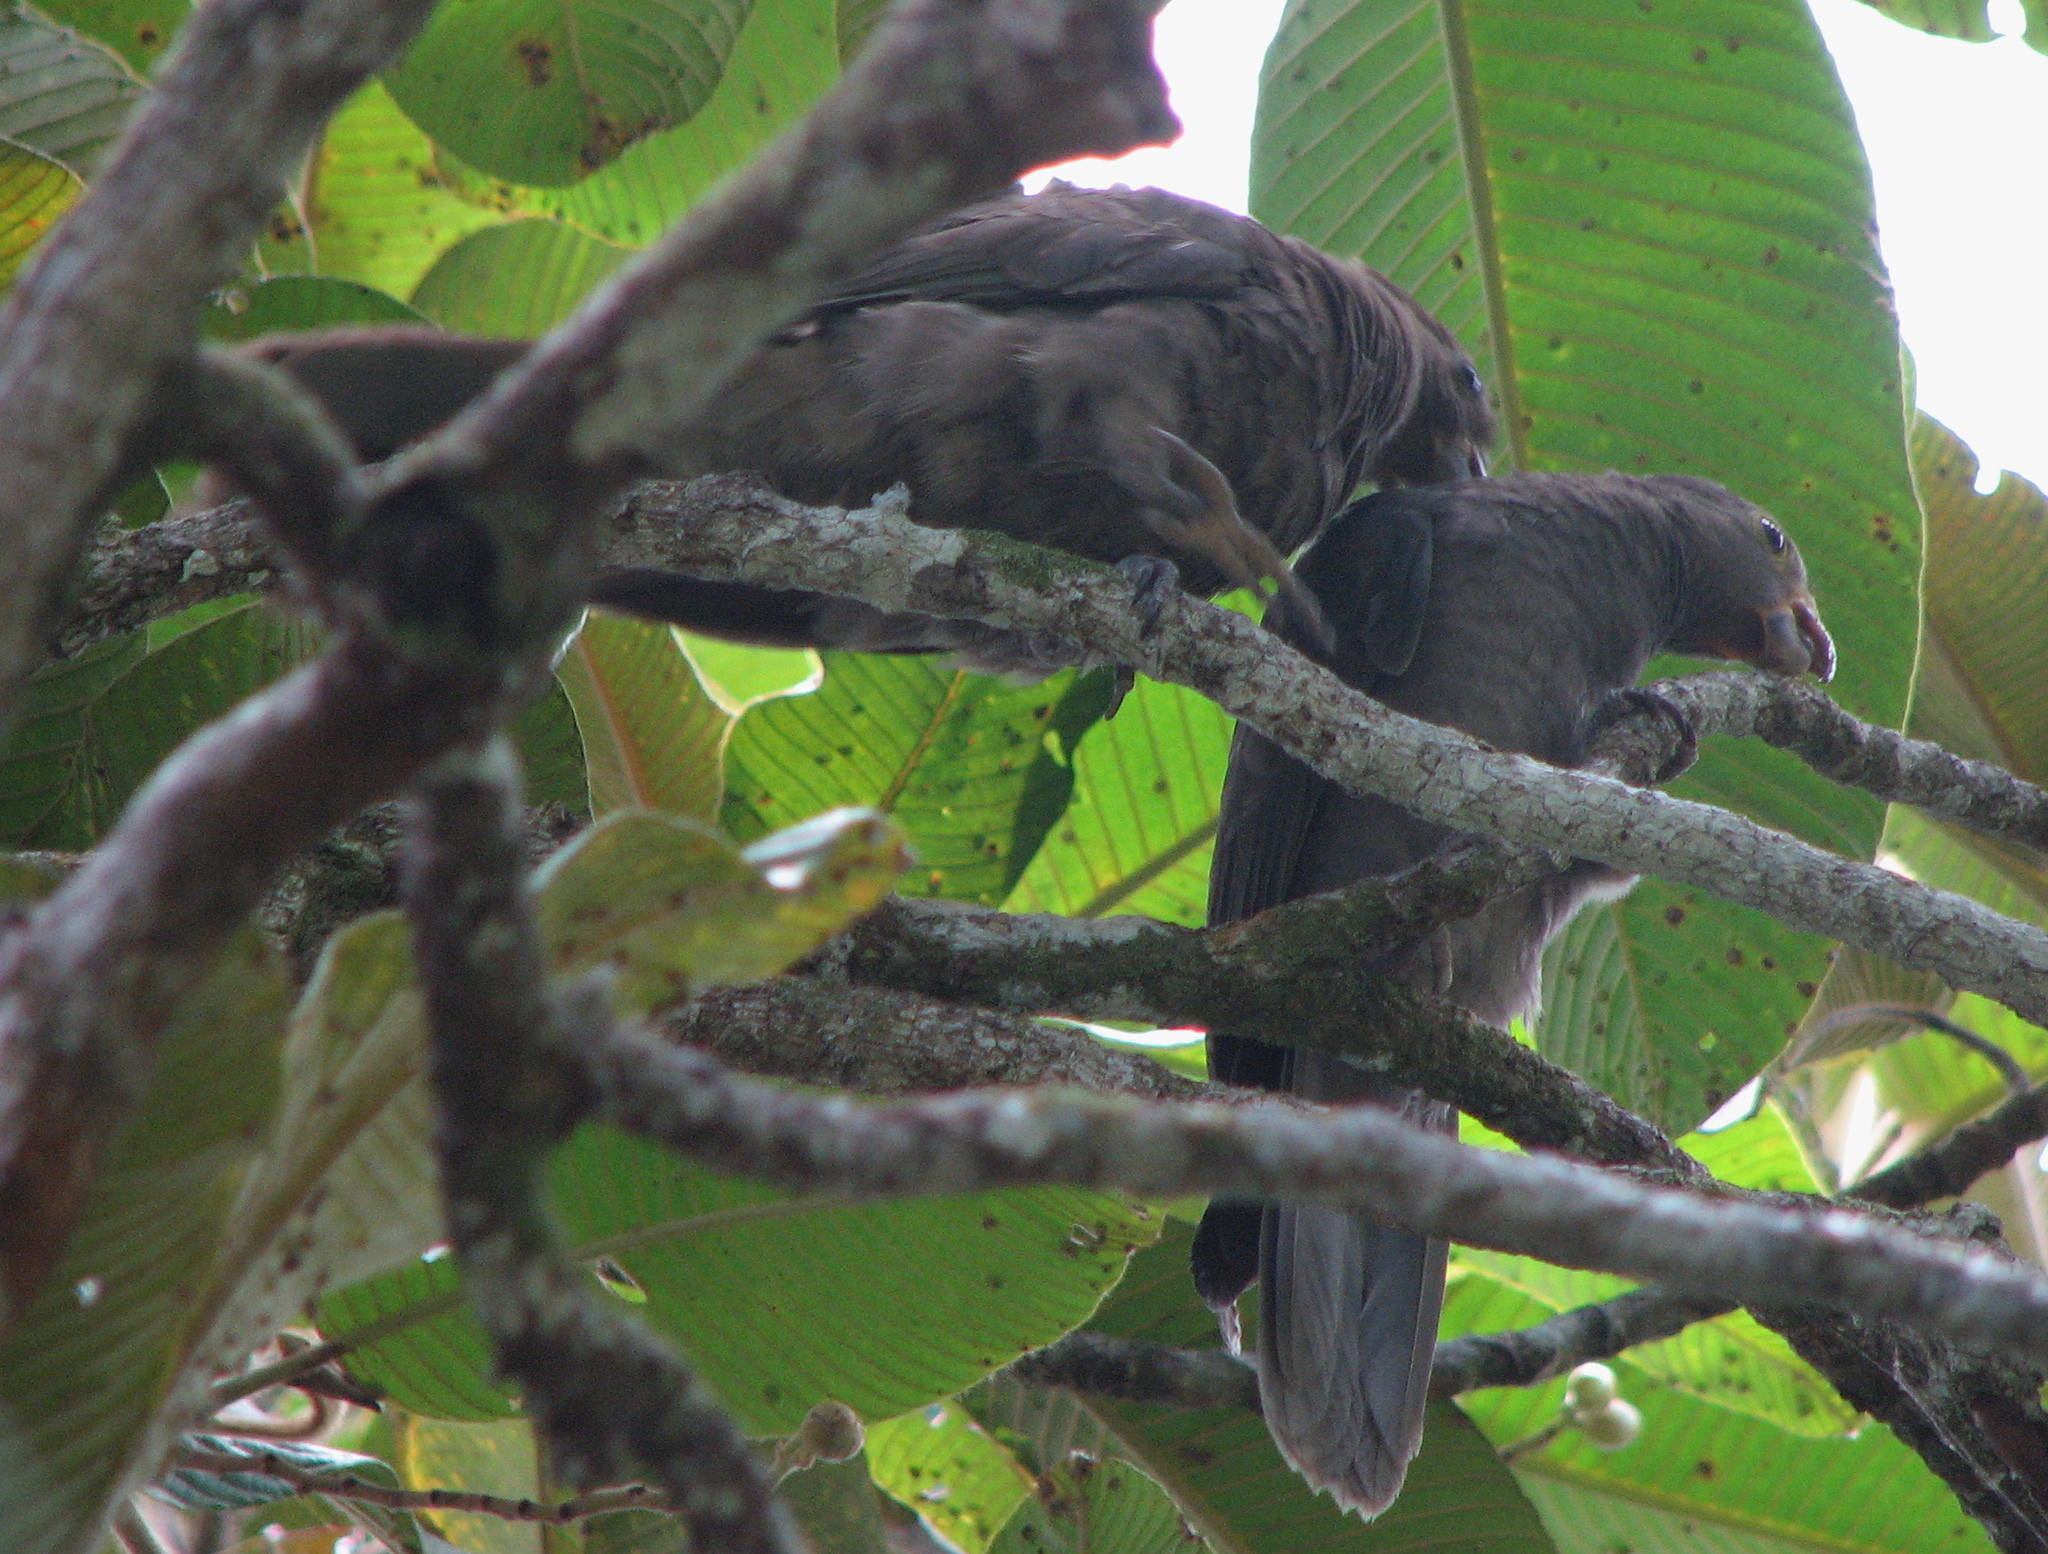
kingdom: Animalia
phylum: Chordata
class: Aves
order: Psittaciformes
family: Psittacidae
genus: Coracopsis
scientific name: Coracopsis barklyi
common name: Seychelles black parrot
